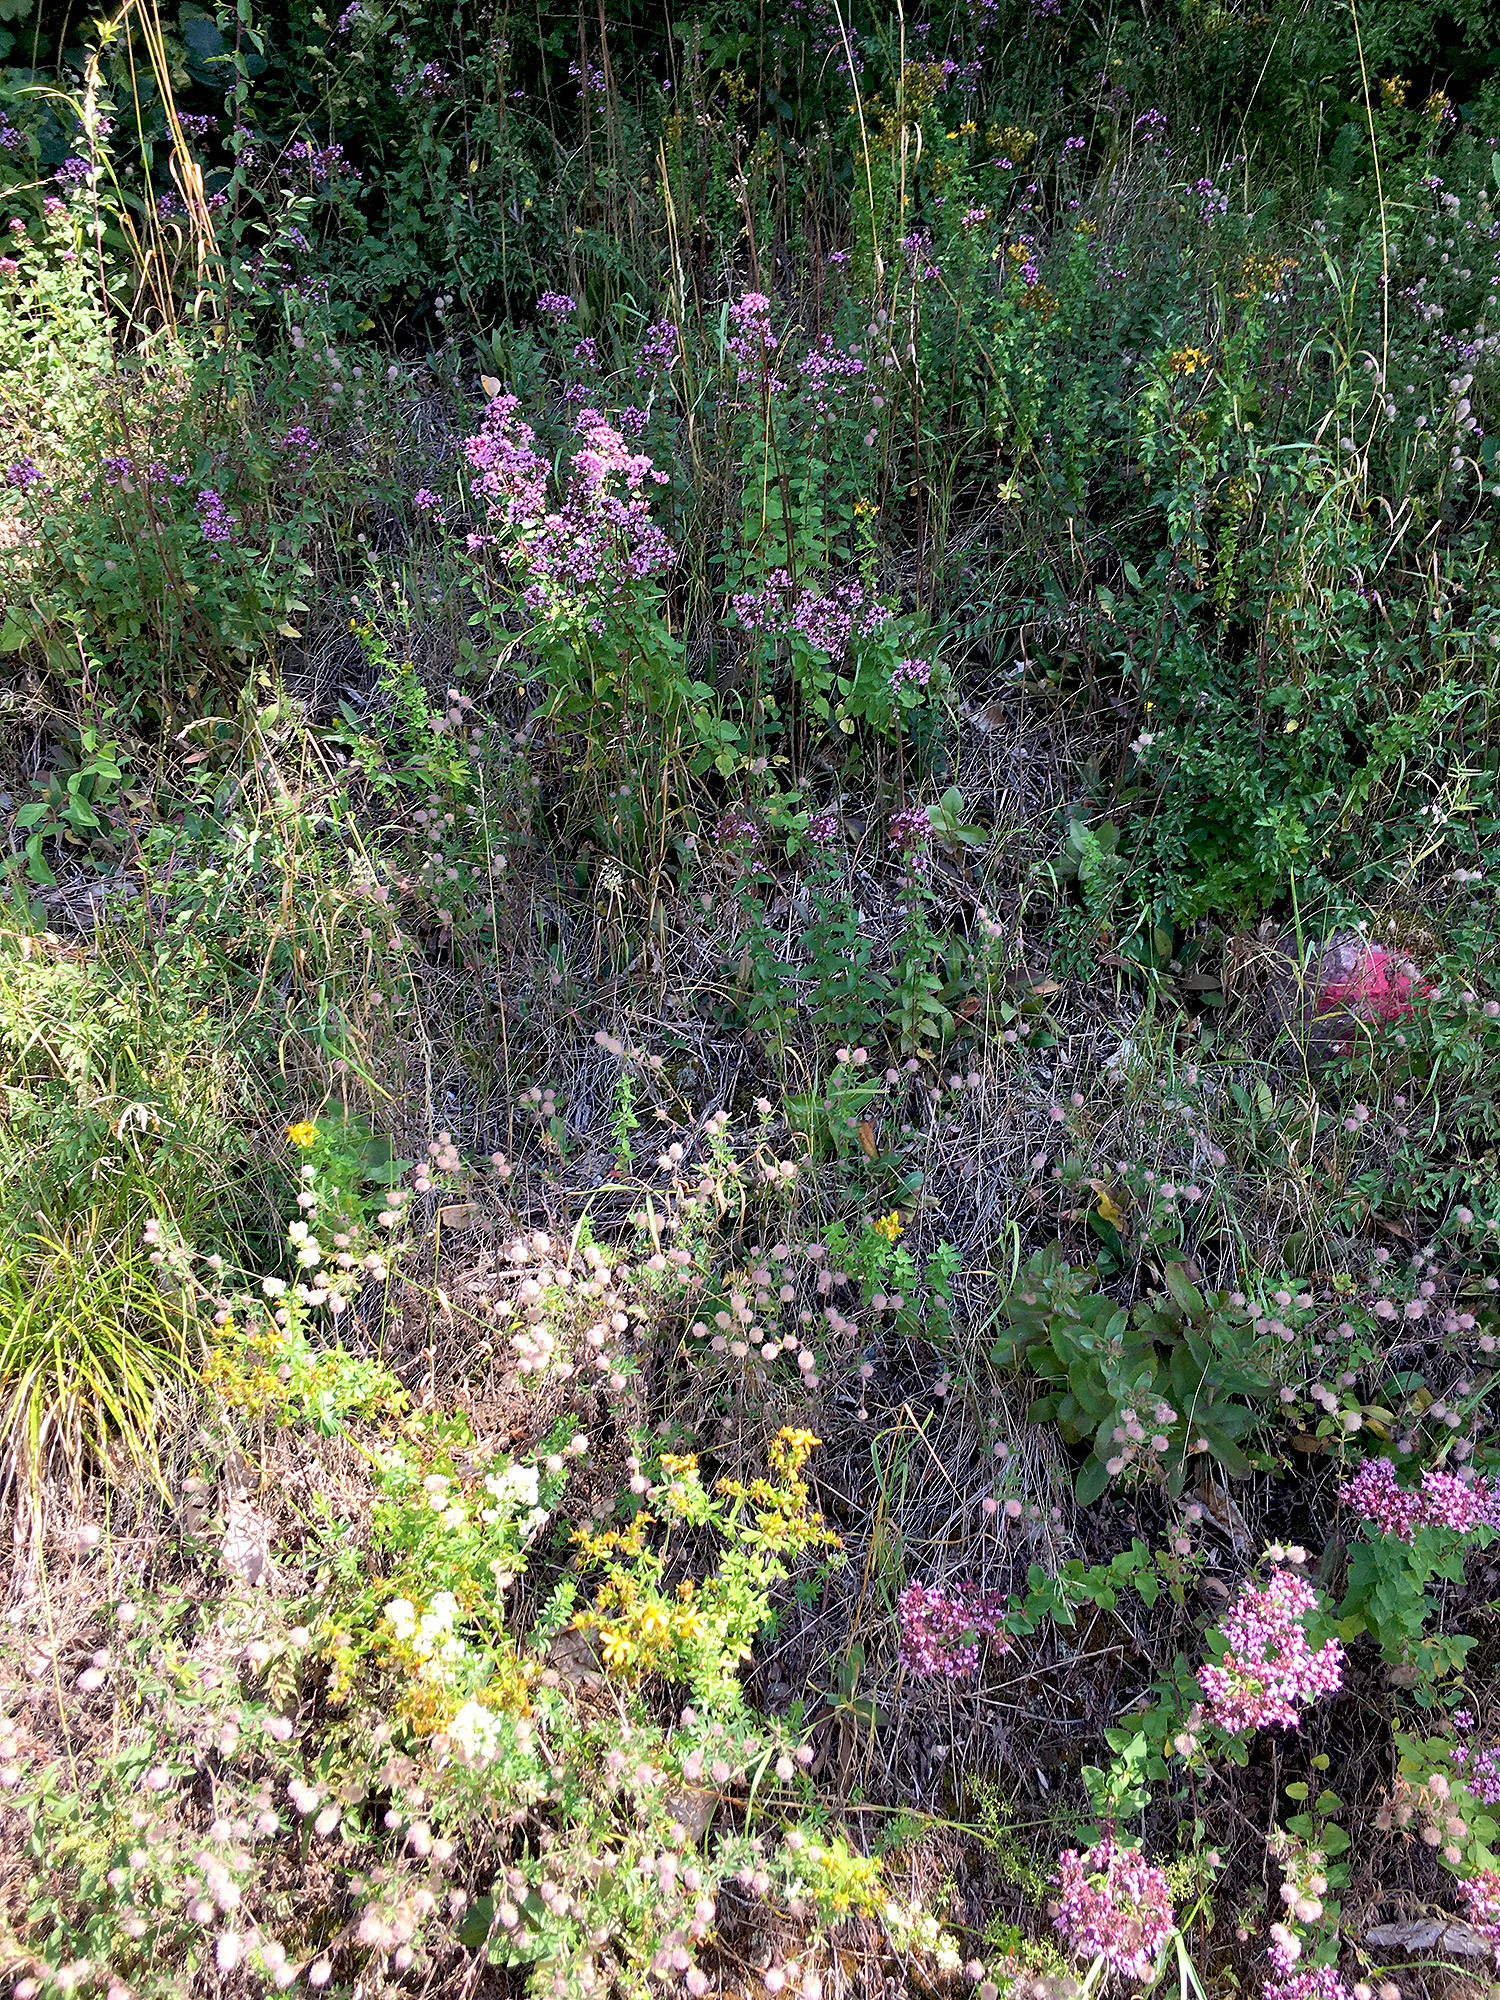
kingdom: Plantae
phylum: Tracheophyta
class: Magnoliopsida
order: Lamiales
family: Lamiaceae
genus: Origanum
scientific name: Origanum vulgare
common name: Wild marjoram
